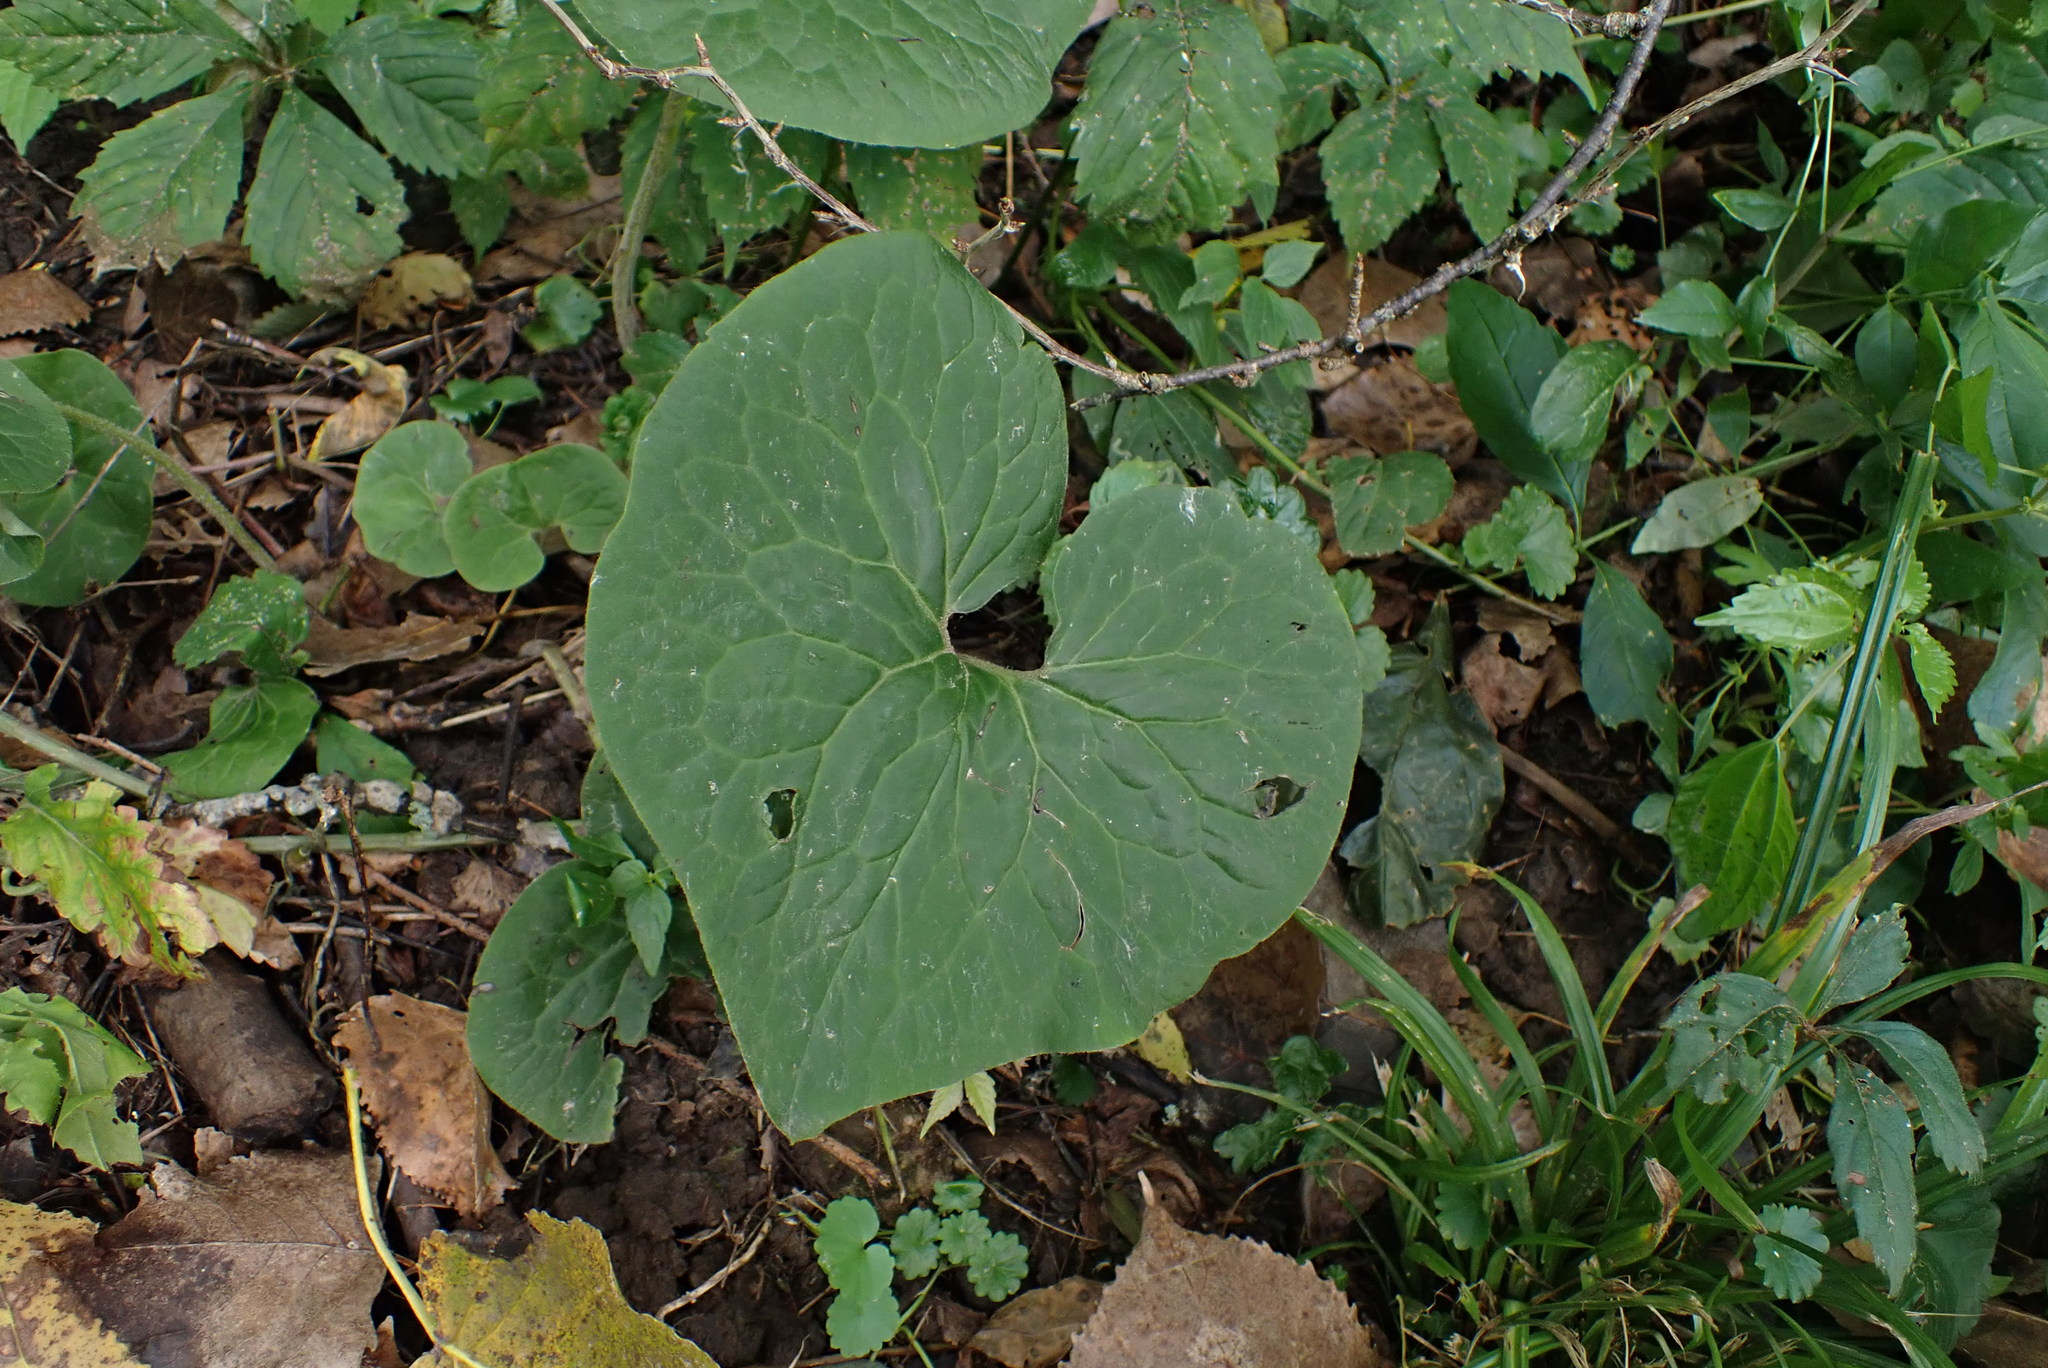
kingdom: Plantae
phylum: Tracheophyta
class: Magnoliopsida
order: Piperales
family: Aristolochiaceae
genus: Asarum
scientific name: Asarum canadense
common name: Wild ginger
